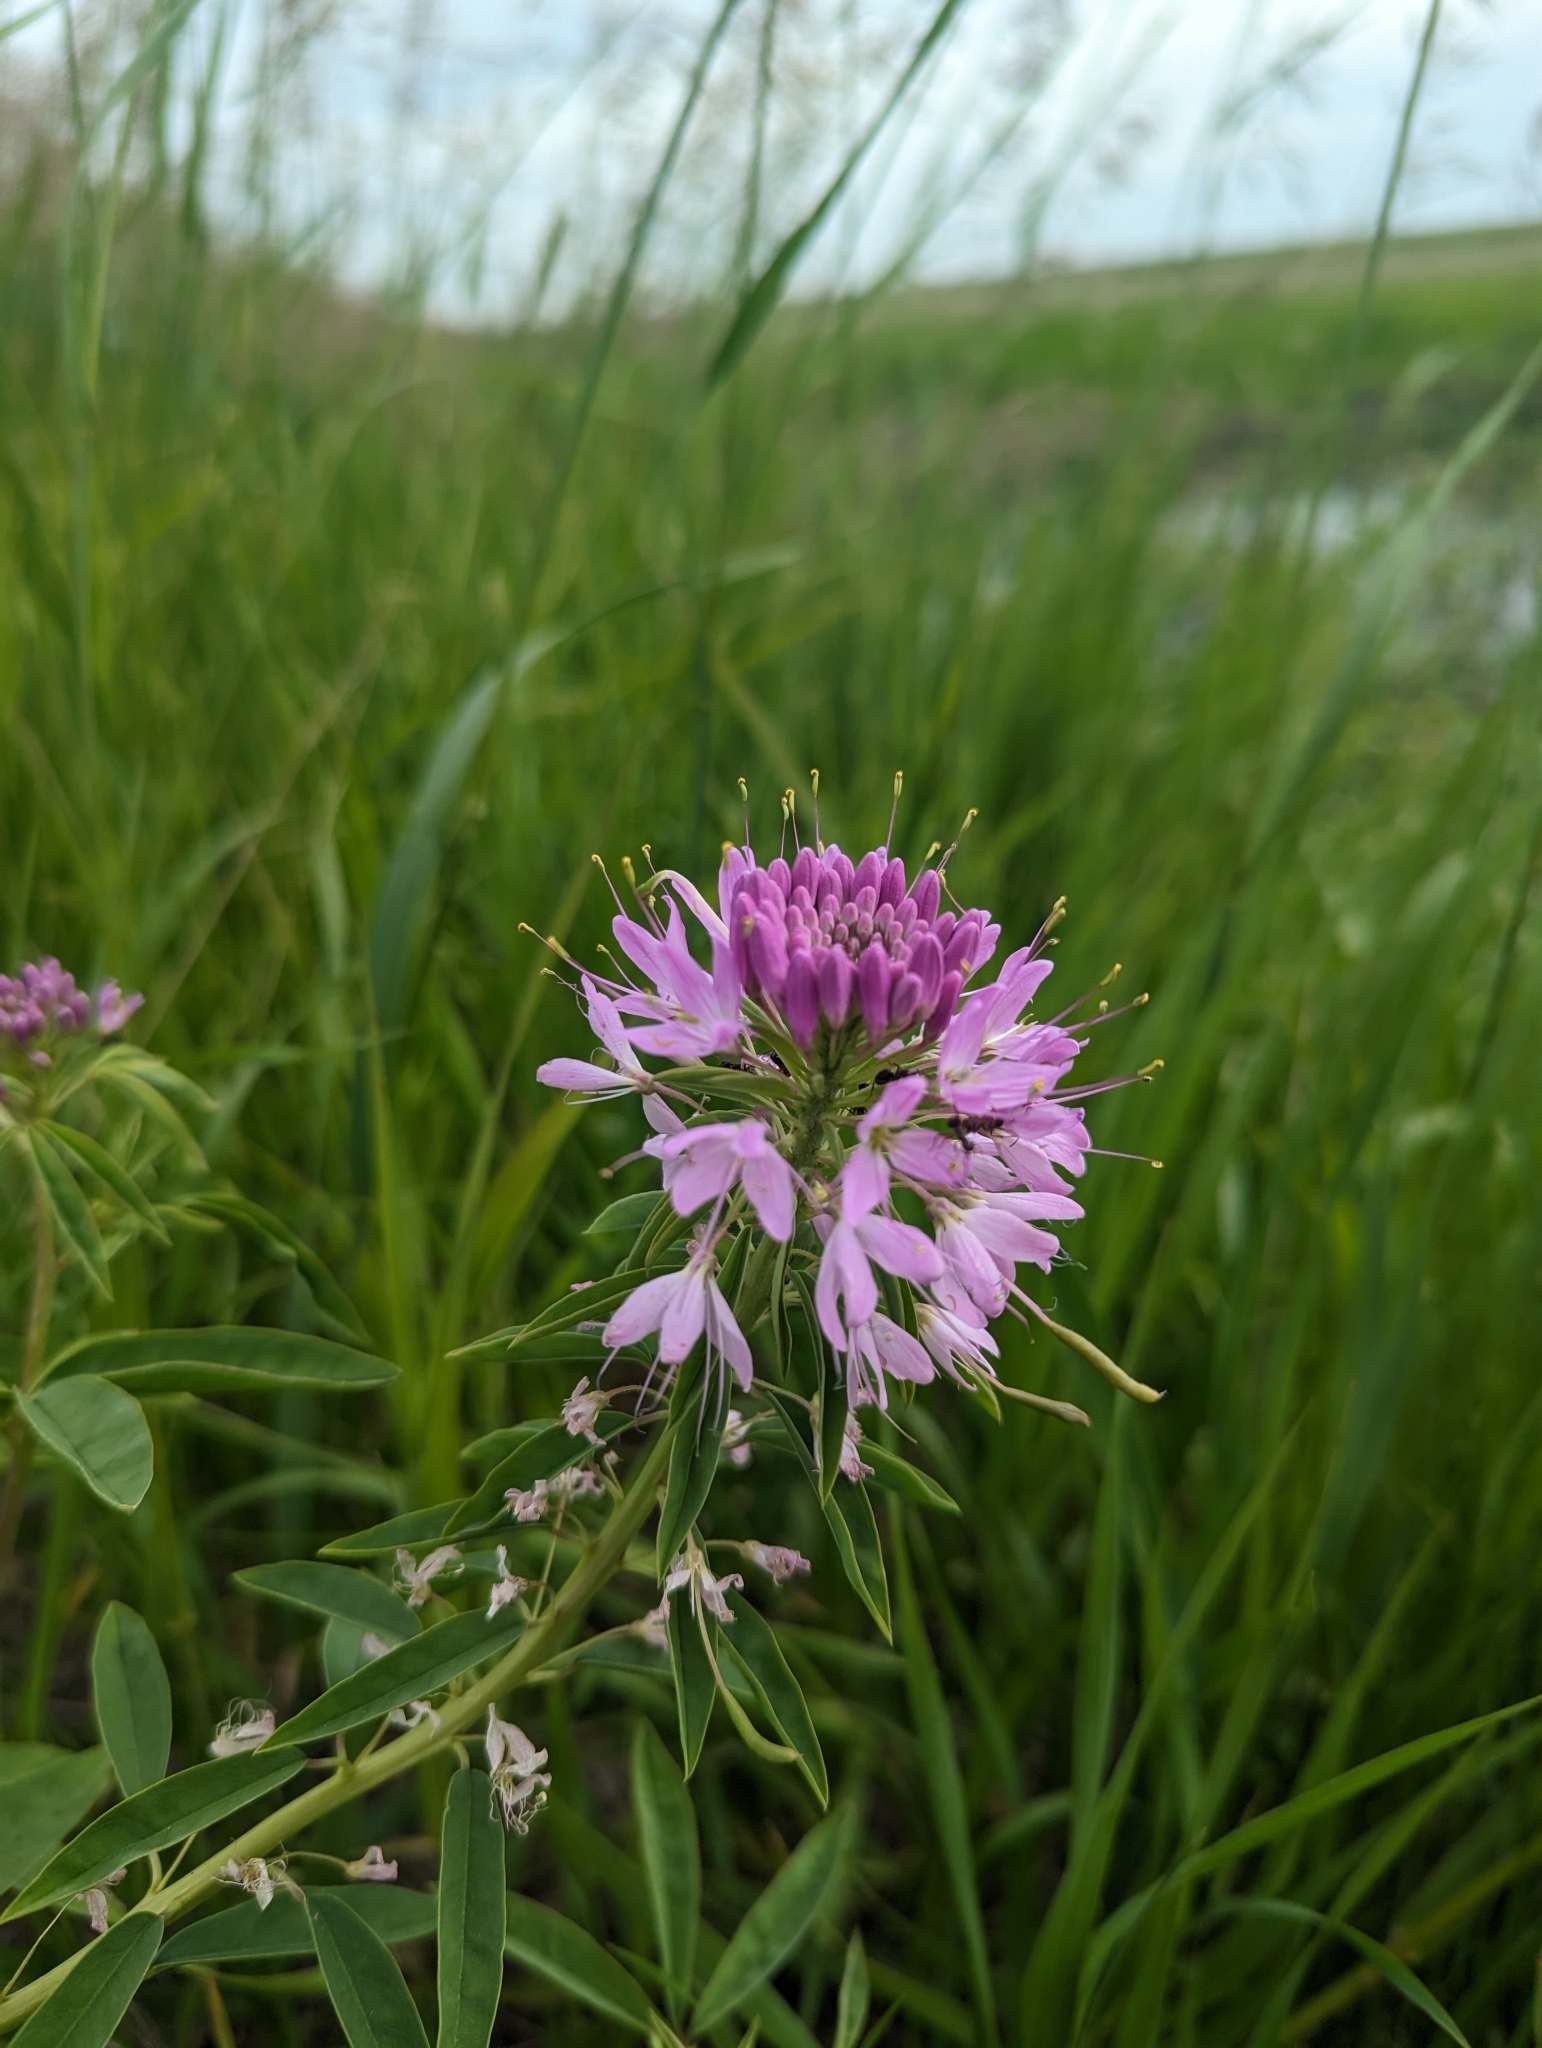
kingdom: Plantae
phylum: Tracheophyta
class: Magnoliopsida
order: Brassicales
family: Cleomaceae
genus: Cleomella
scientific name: Cleomella serrulata
